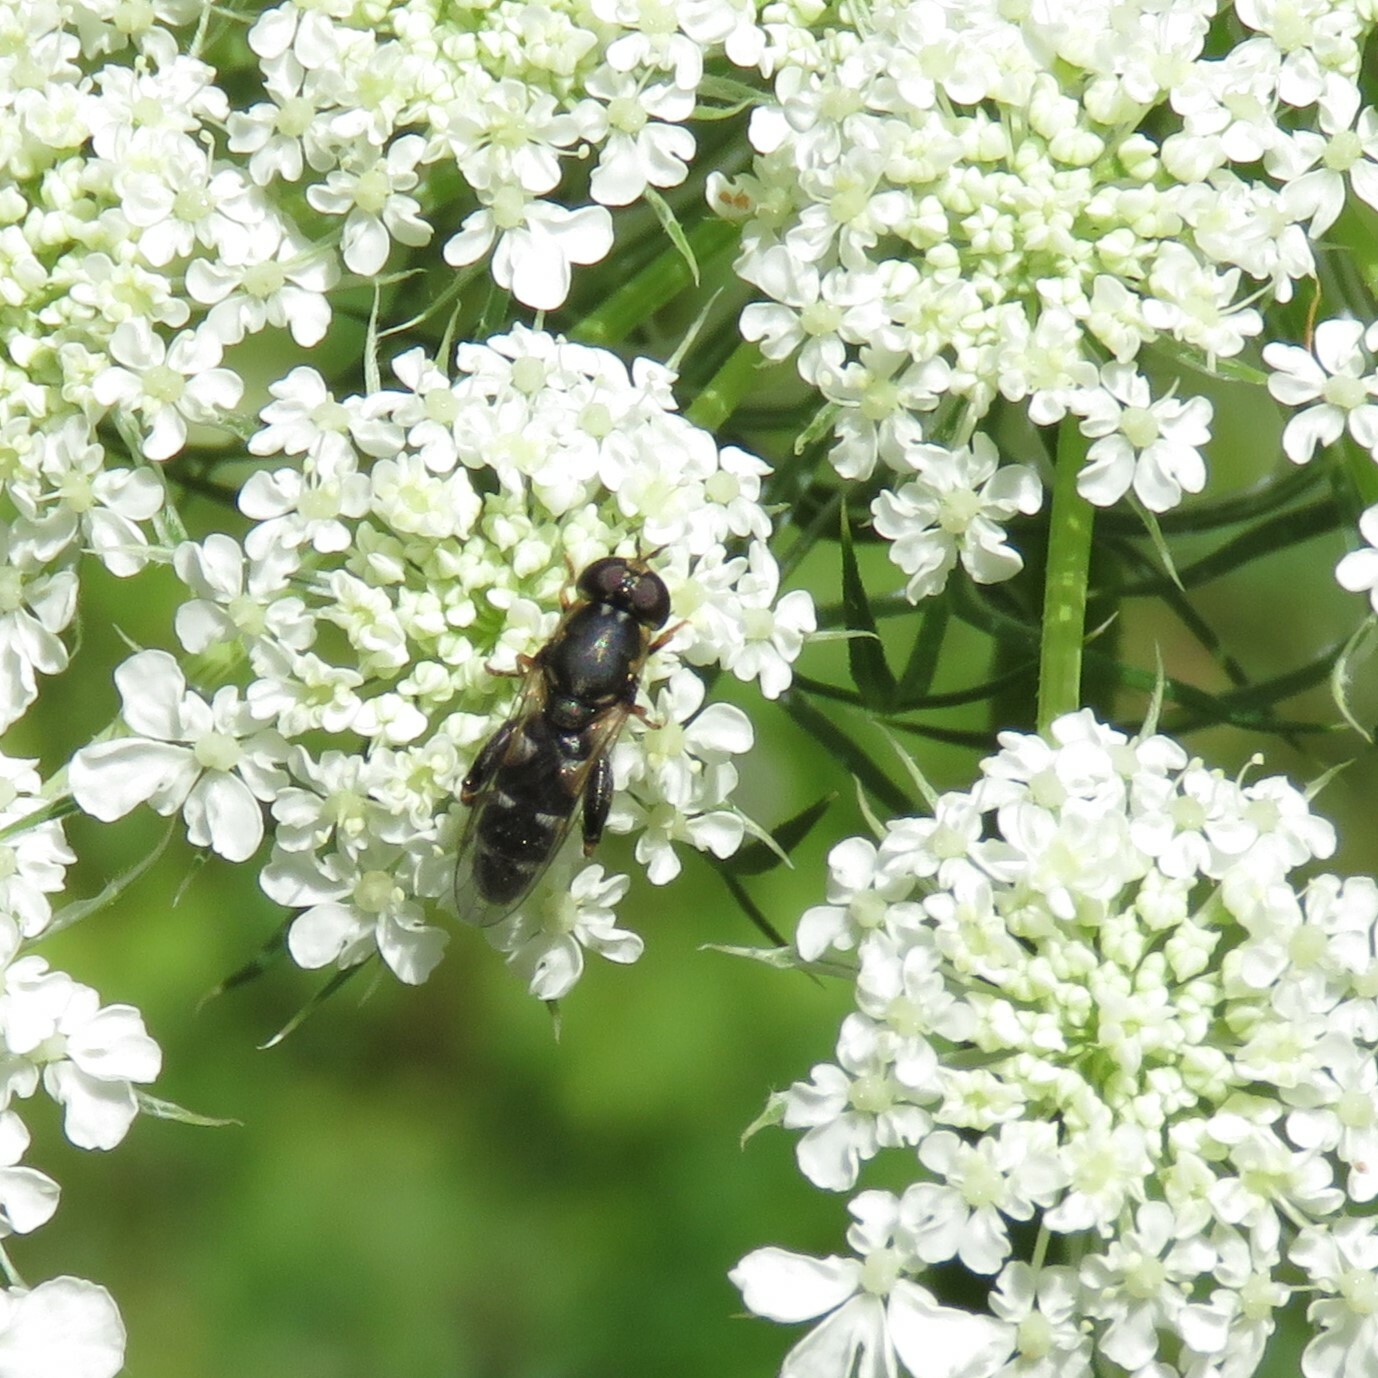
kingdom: Animalia
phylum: Arthropoda
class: Insecta
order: Diptera
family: Syrphidae
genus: Syritta
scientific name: Syritta pipiens
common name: Hover fly
